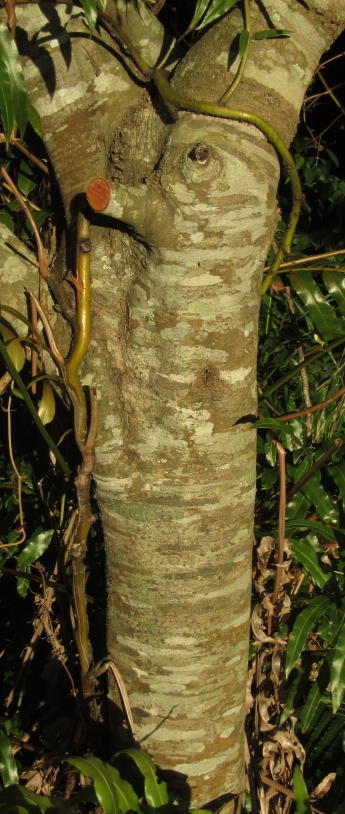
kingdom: Plantae
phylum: Tracheophyta
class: Magnoliopsida
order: Metteniusales
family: Metteniusaceae
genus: Apodytes
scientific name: Apodytes dimidiata
